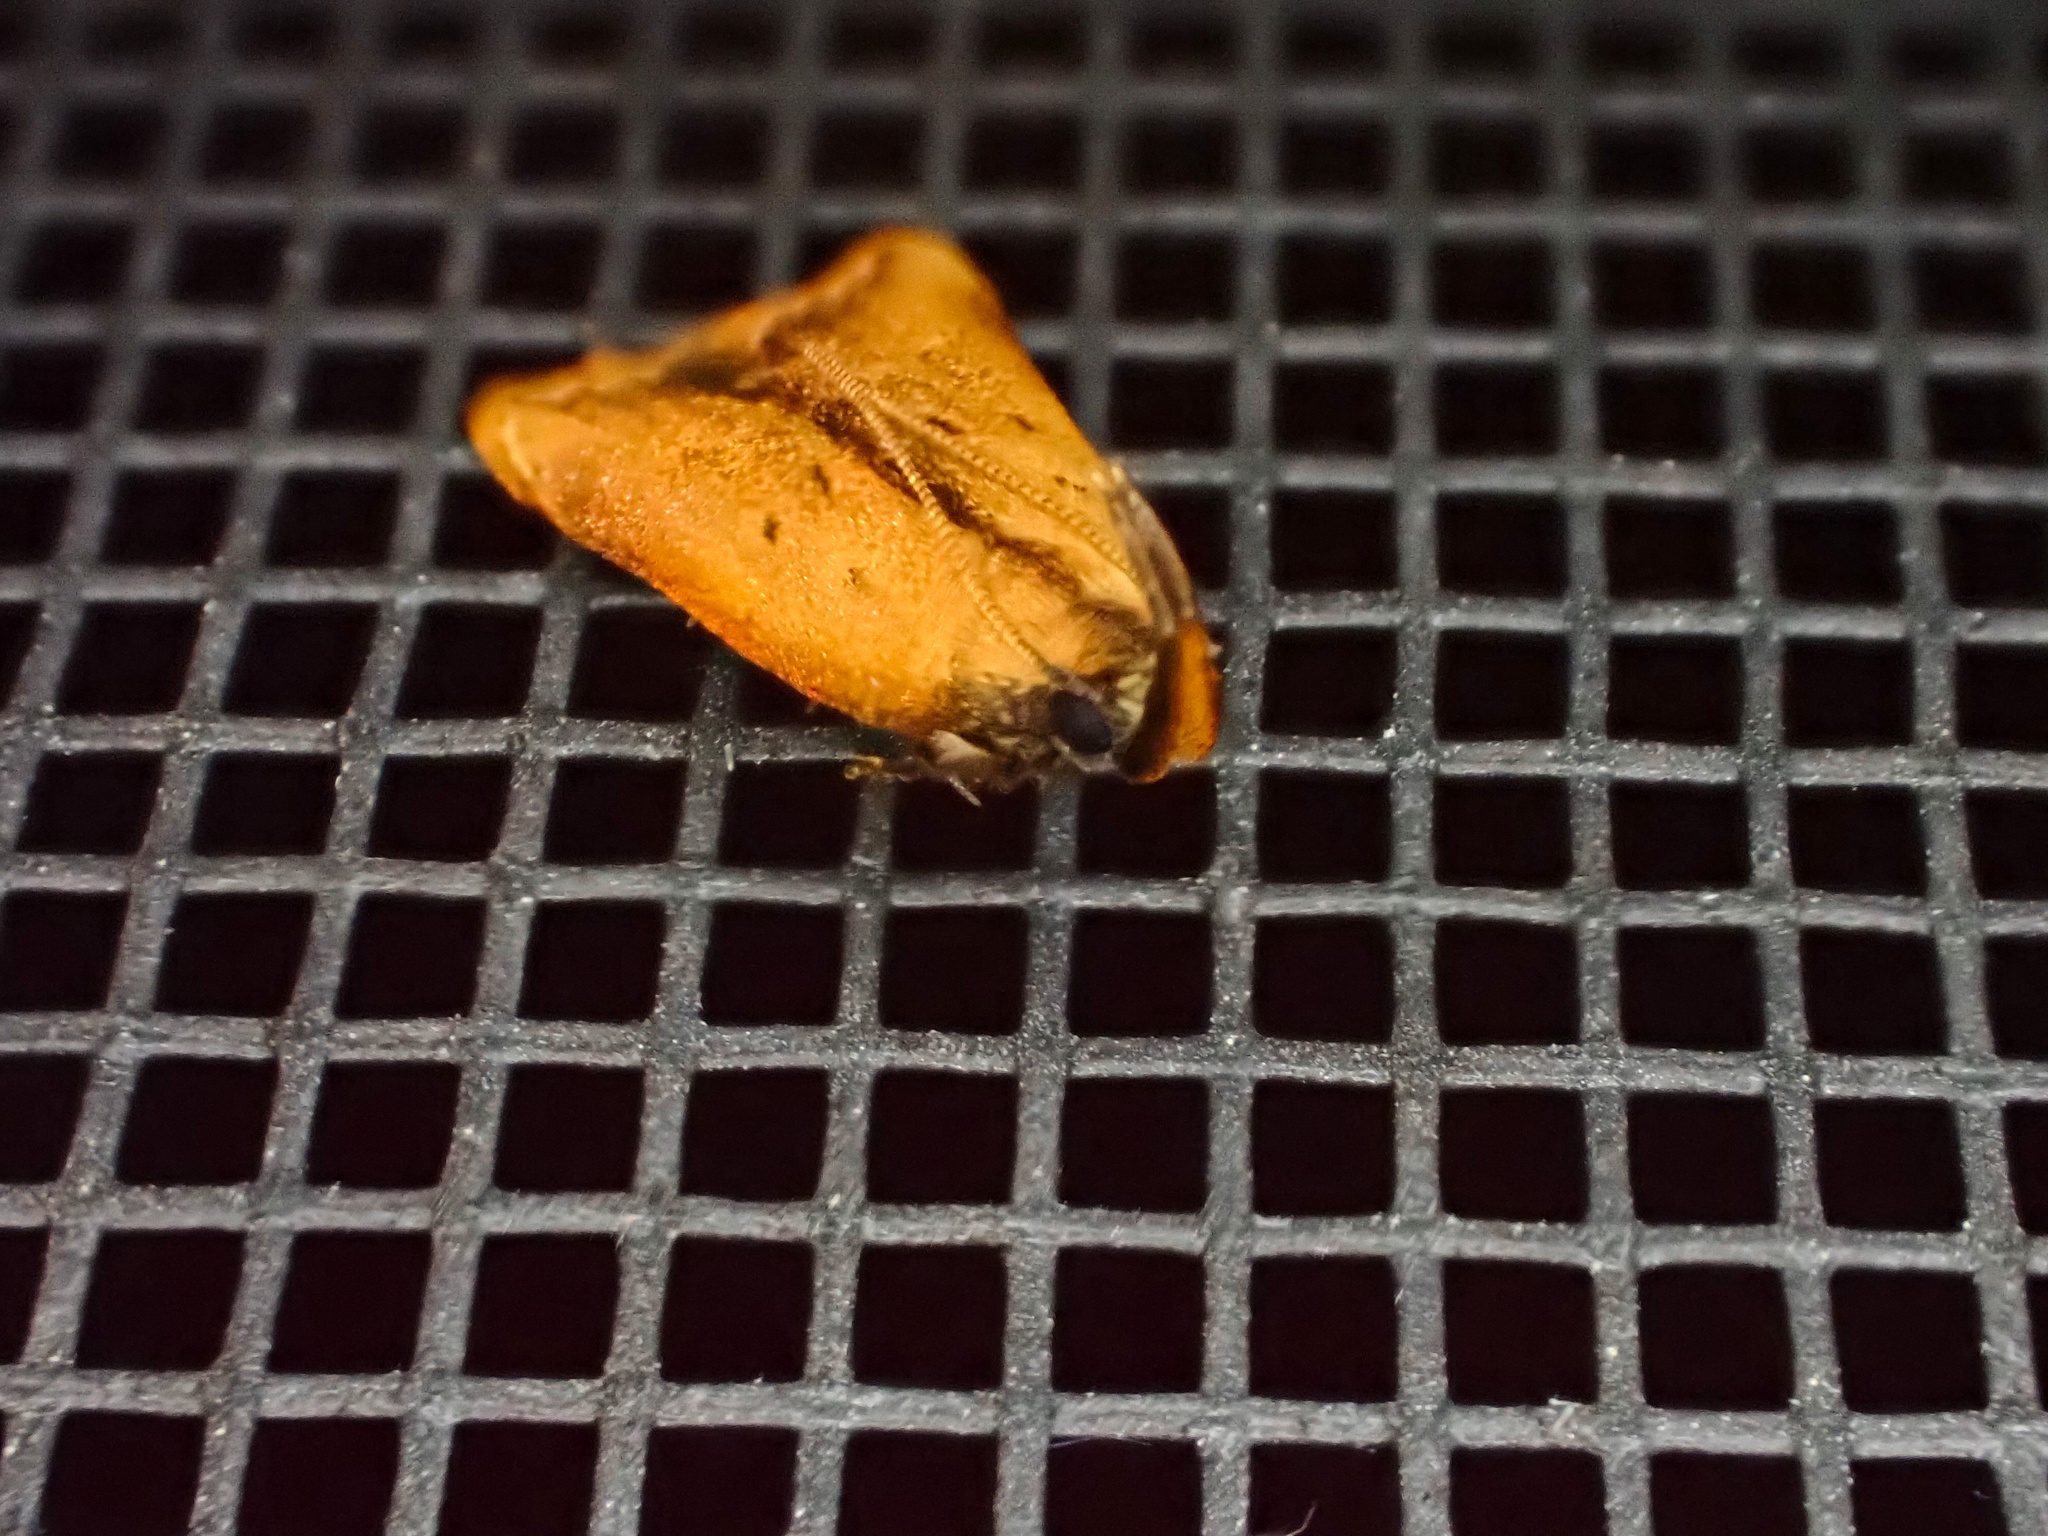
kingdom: Animalia
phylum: Arthropoda
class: Insecta
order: Lepidoptera
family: Gelechiidae
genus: Dichomeris
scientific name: Dichomeris heriguronis
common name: Black-edged dichomeris moth
